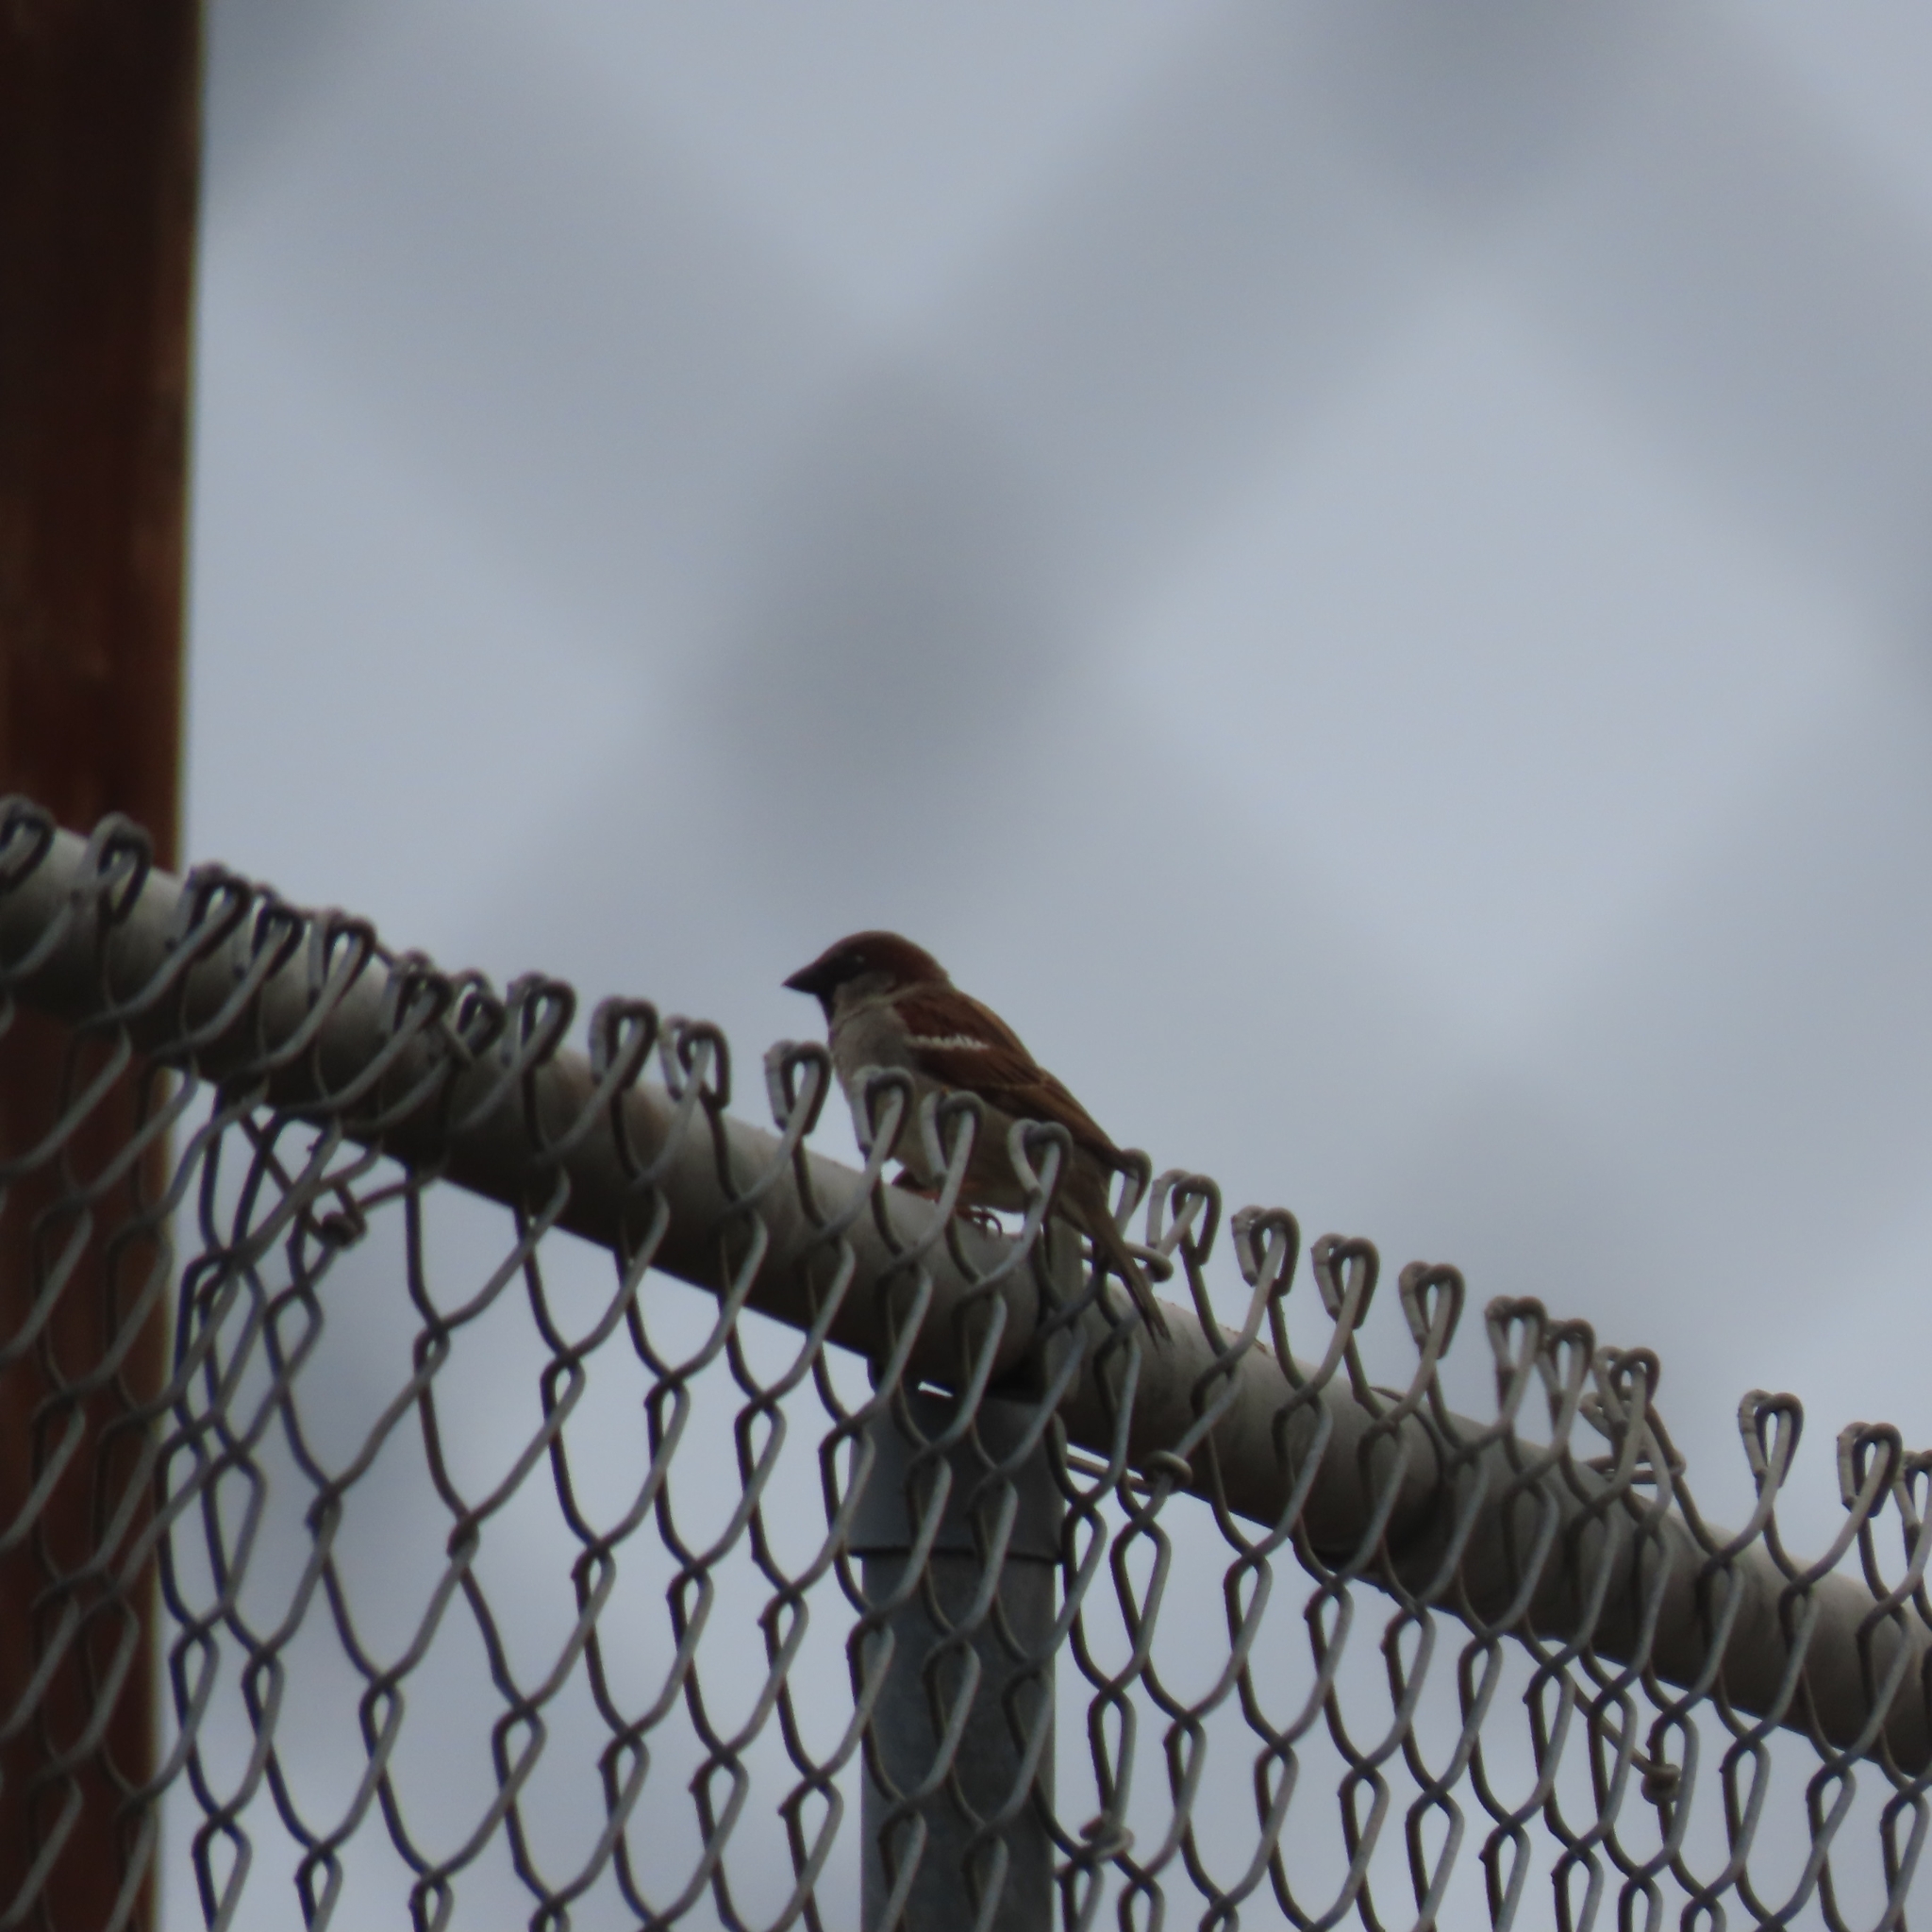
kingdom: Animalia
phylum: Chordata
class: Aves
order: Passeriformes
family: Passeridae
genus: Passer
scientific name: Passer domesticus
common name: House sparrow
